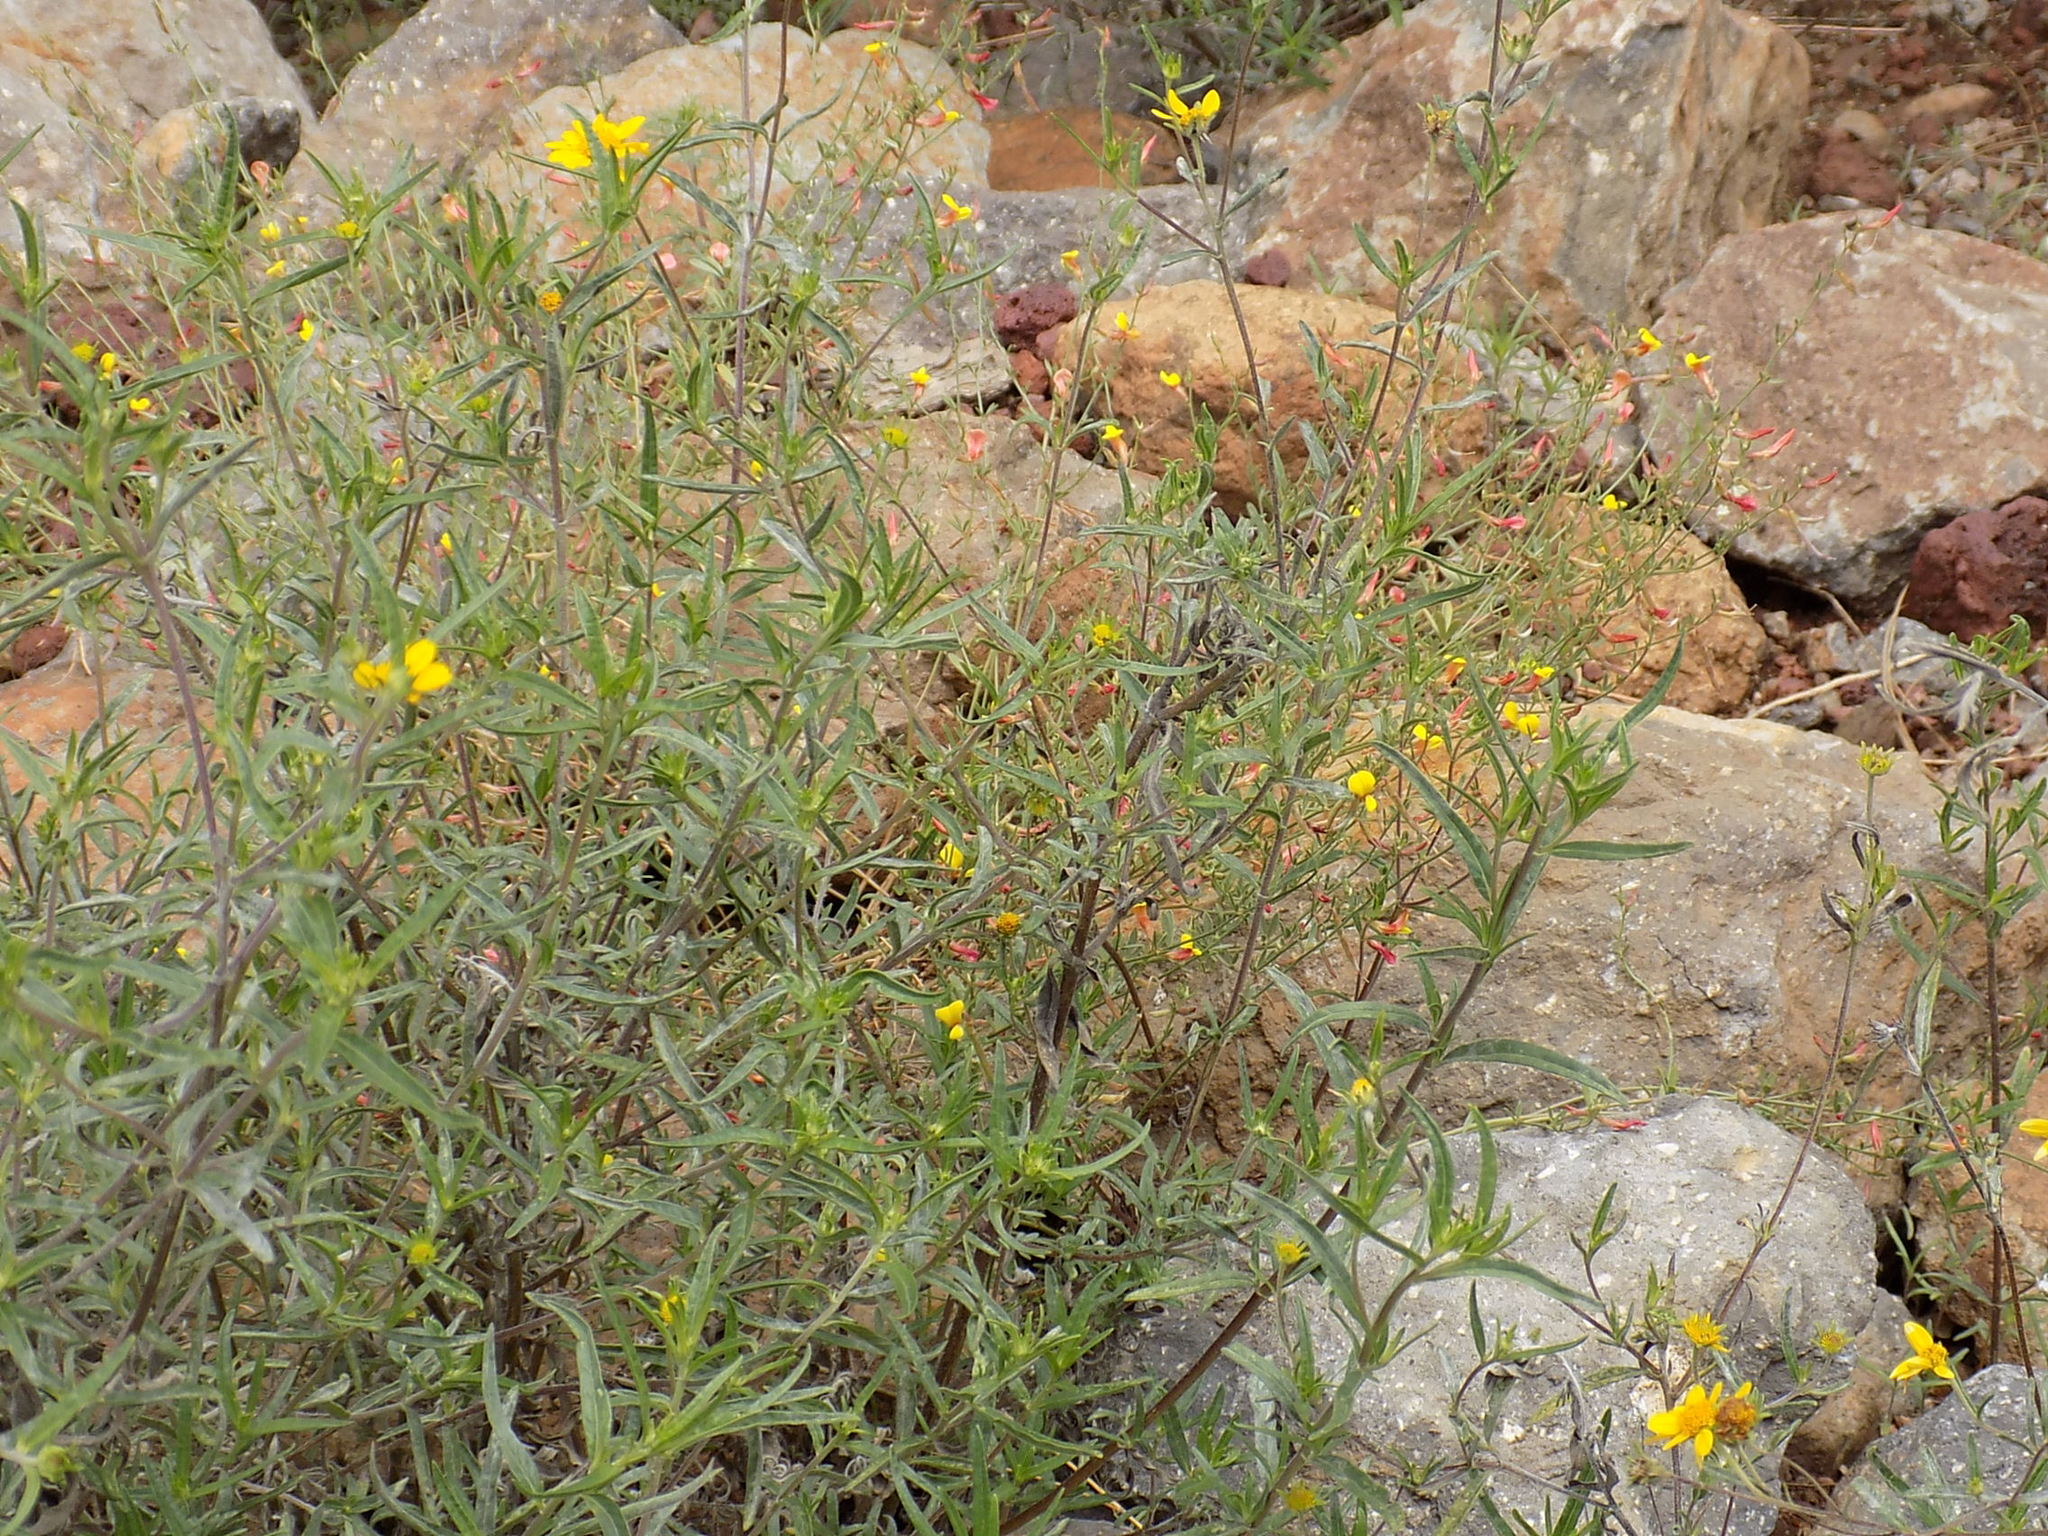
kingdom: Plantae
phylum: Tracheophyta
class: Magnoliopsida
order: Asterales
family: Asteraceae
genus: Heliomeris
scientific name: Heliomeris multiflora
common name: Showy goldeneye
